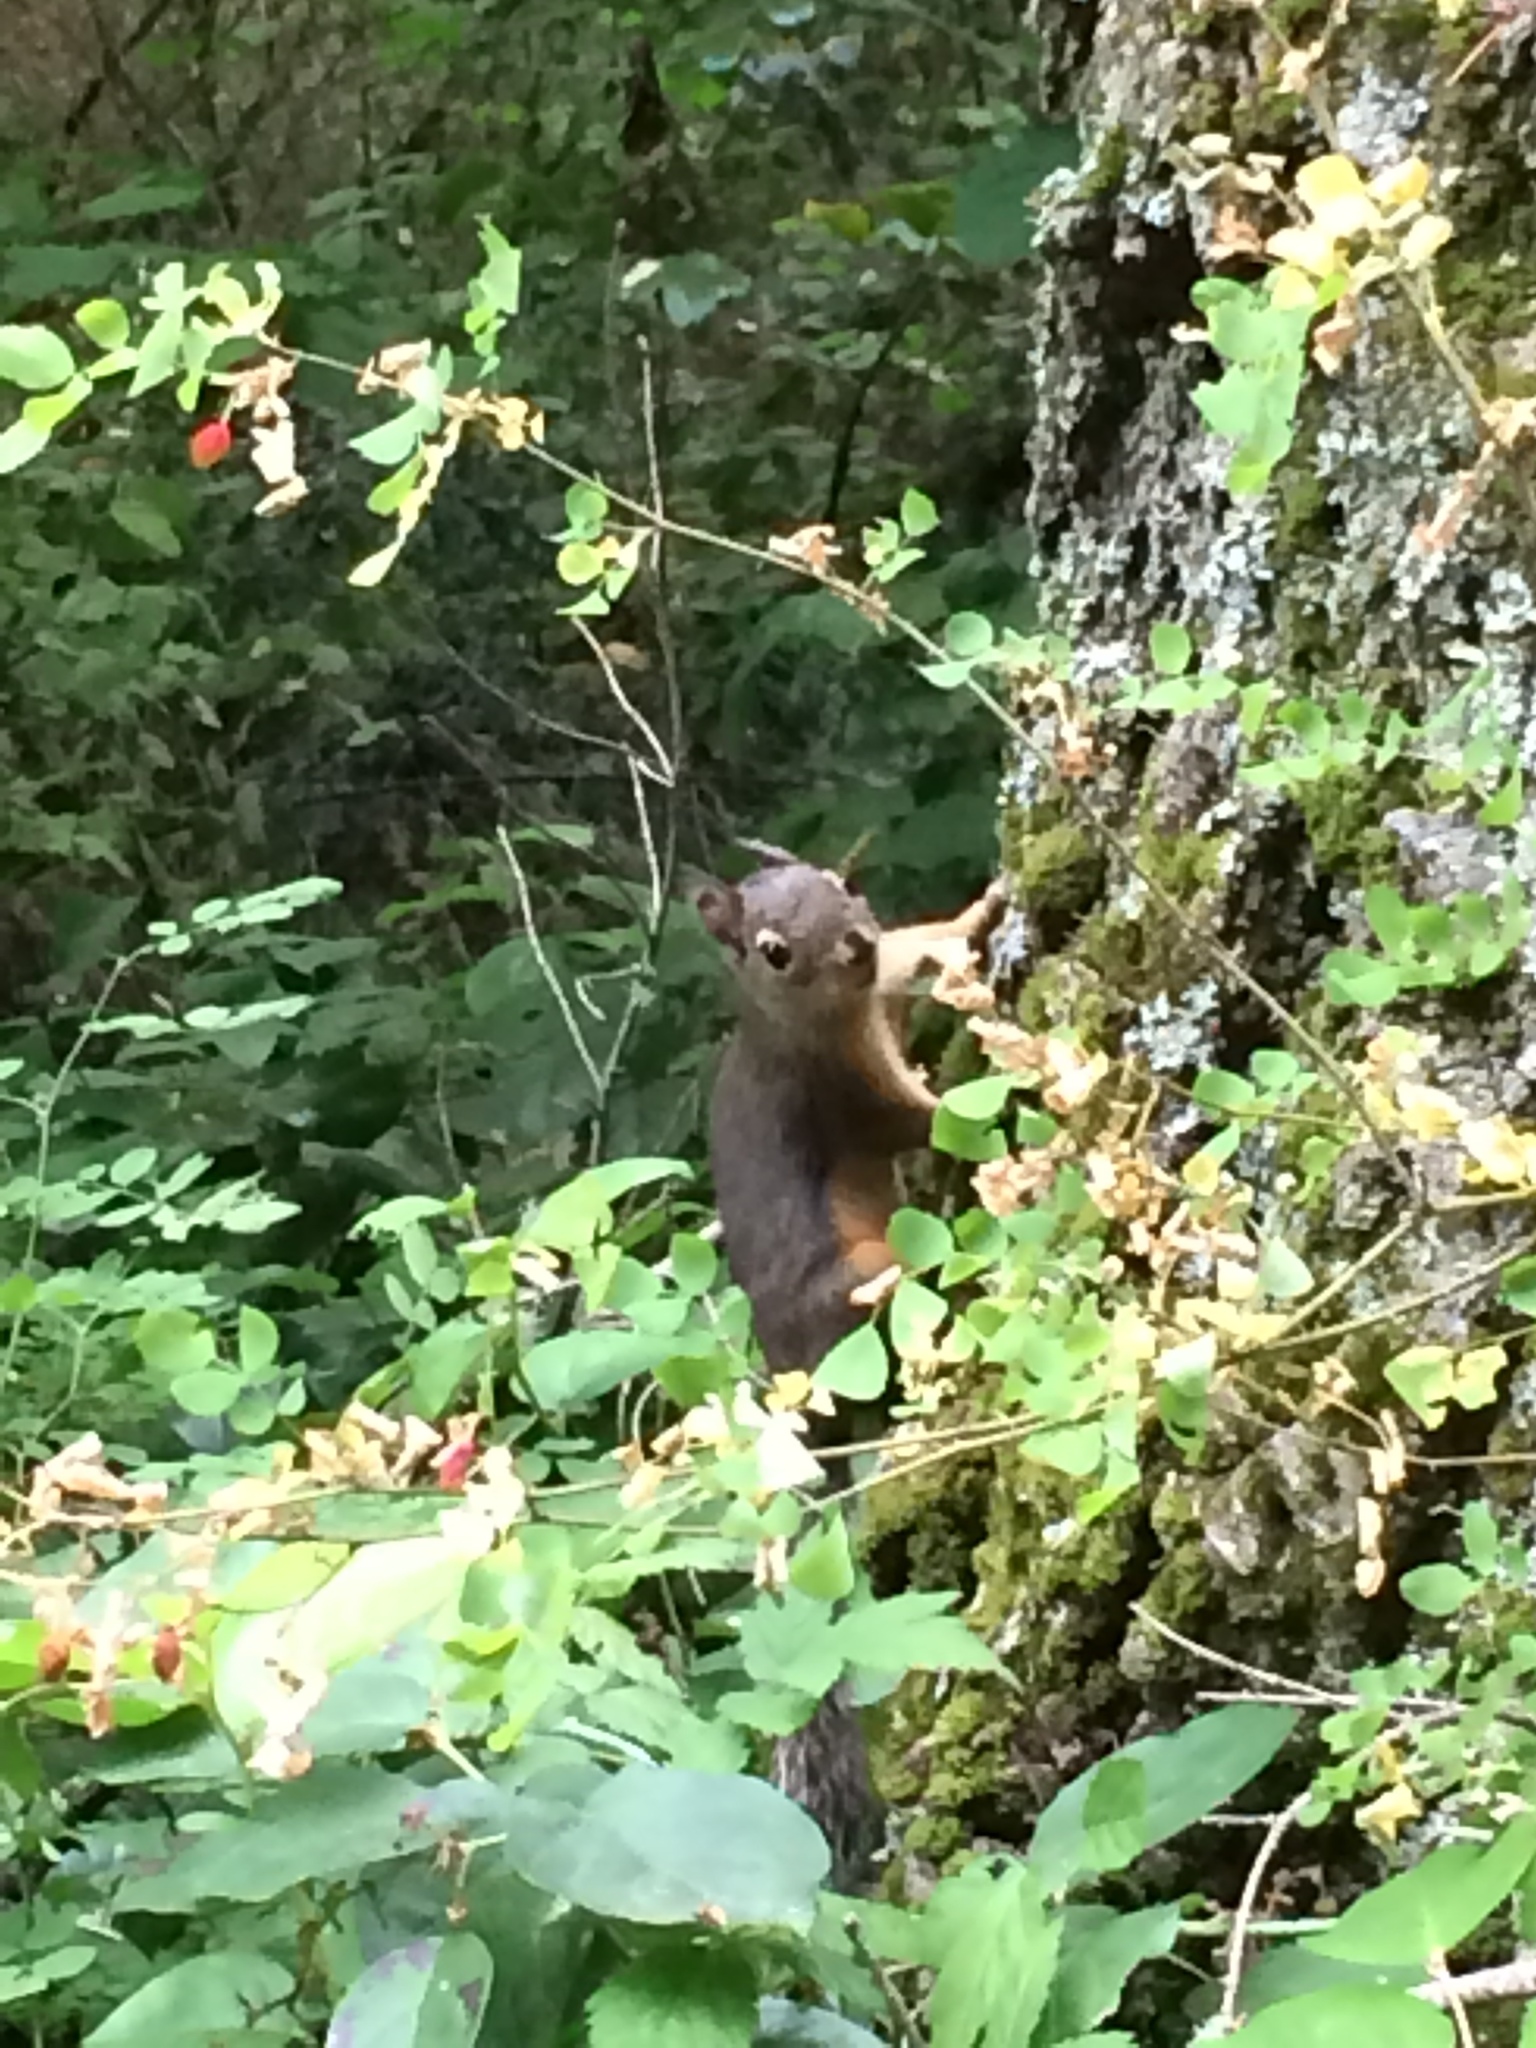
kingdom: Animalia
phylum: Chordata
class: Mammalia
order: Rodentia
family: Sciuridae
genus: Tamiasciurus
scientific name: Tamiasciurus douglasii
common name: Douglas's squirrel
